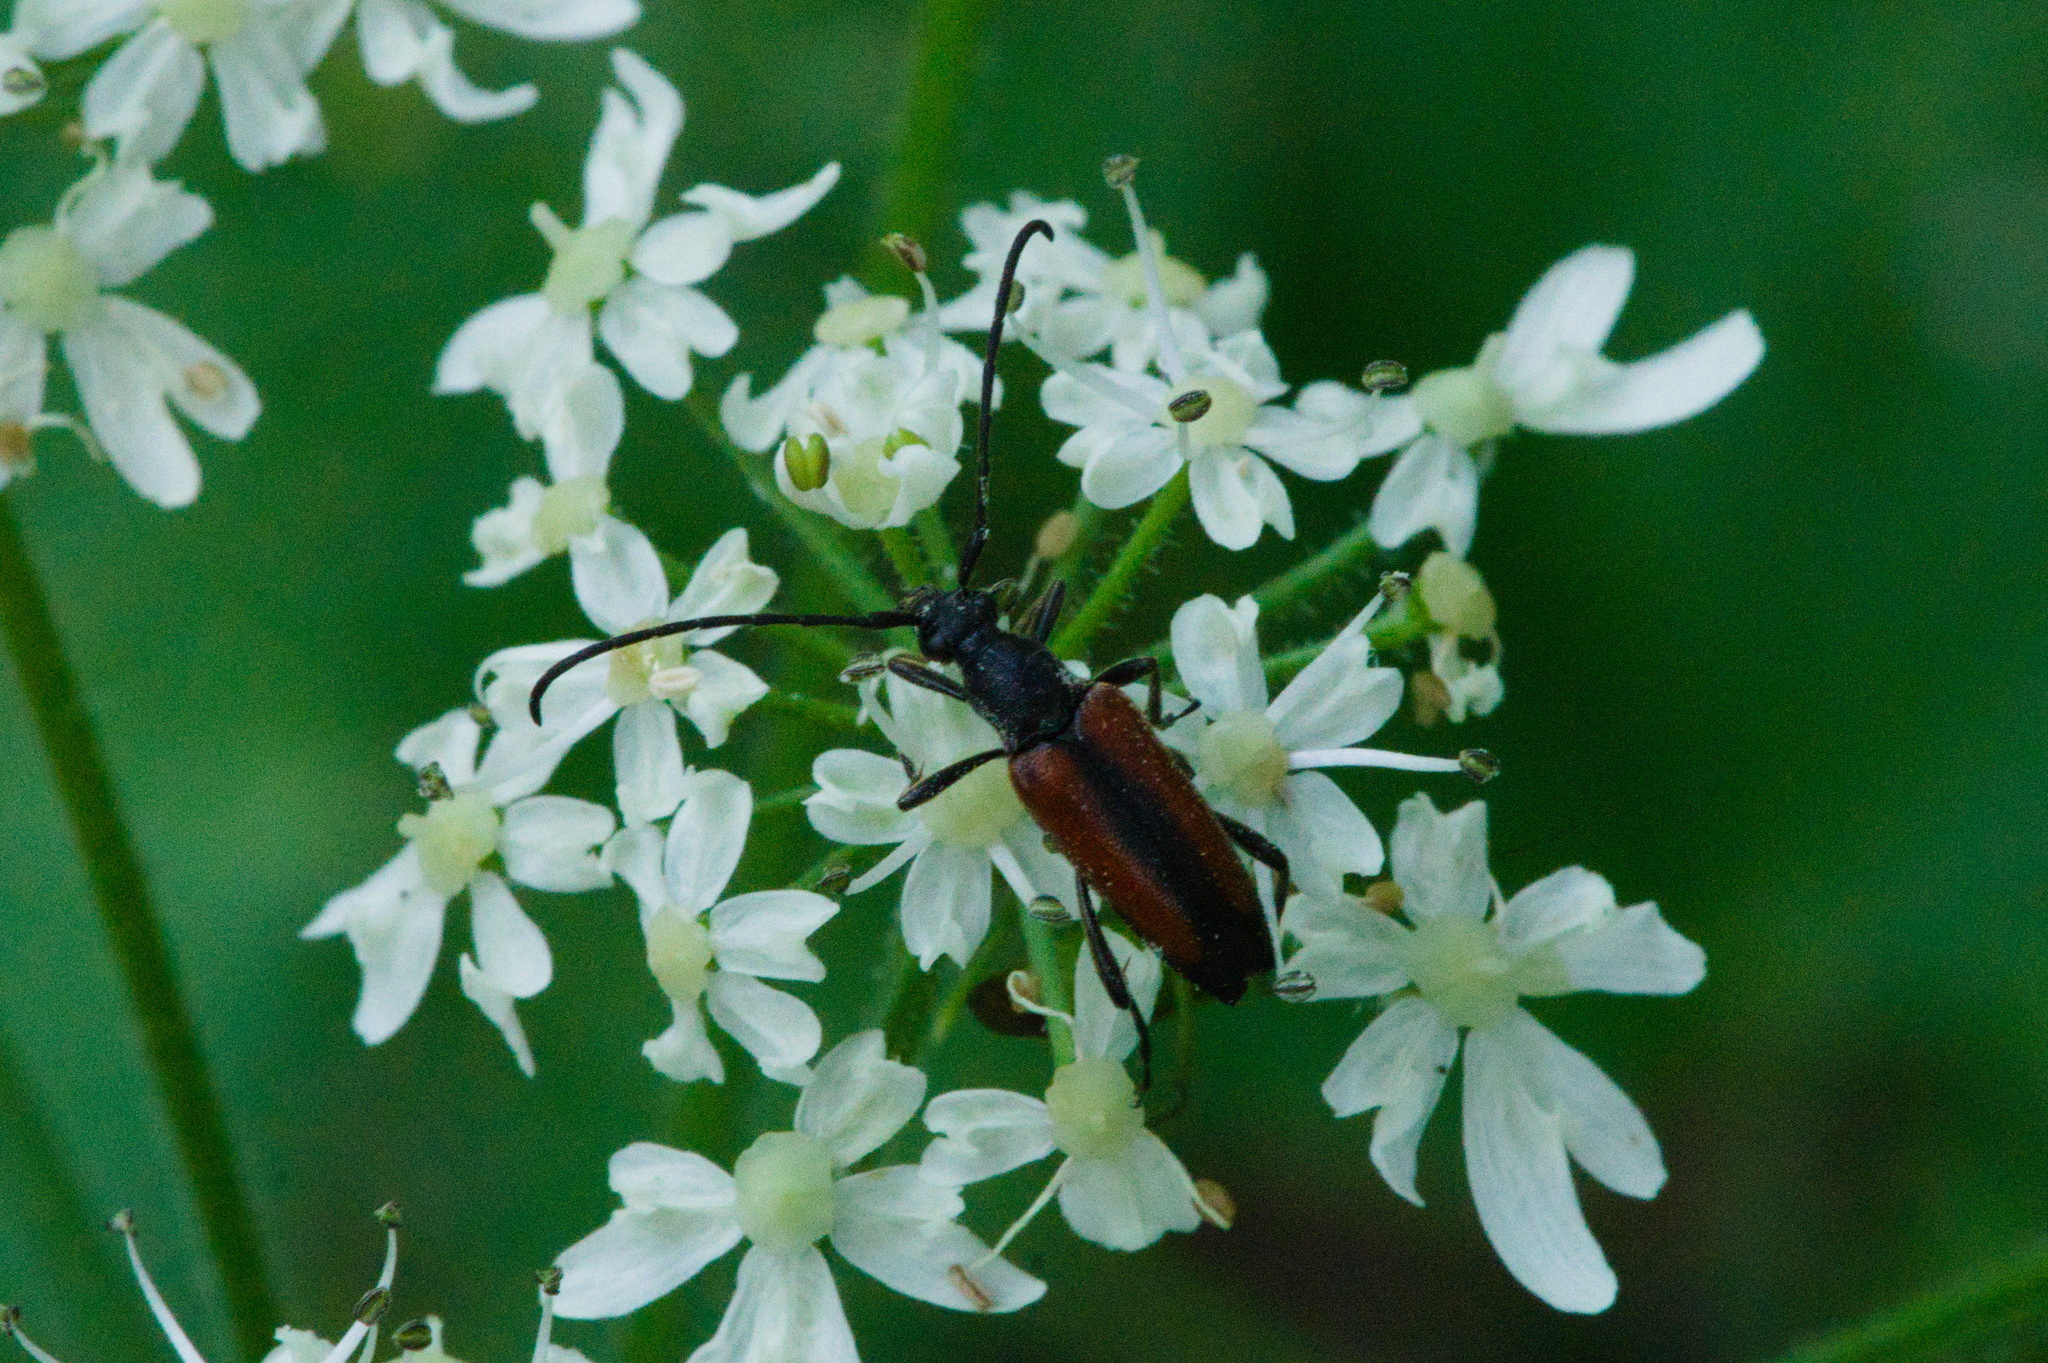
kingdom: Animalia
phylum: Arthropoda
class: Insecta
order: Coleoptera
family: Cerambycidae
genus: Stenurella
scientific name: Stenurella melanura
